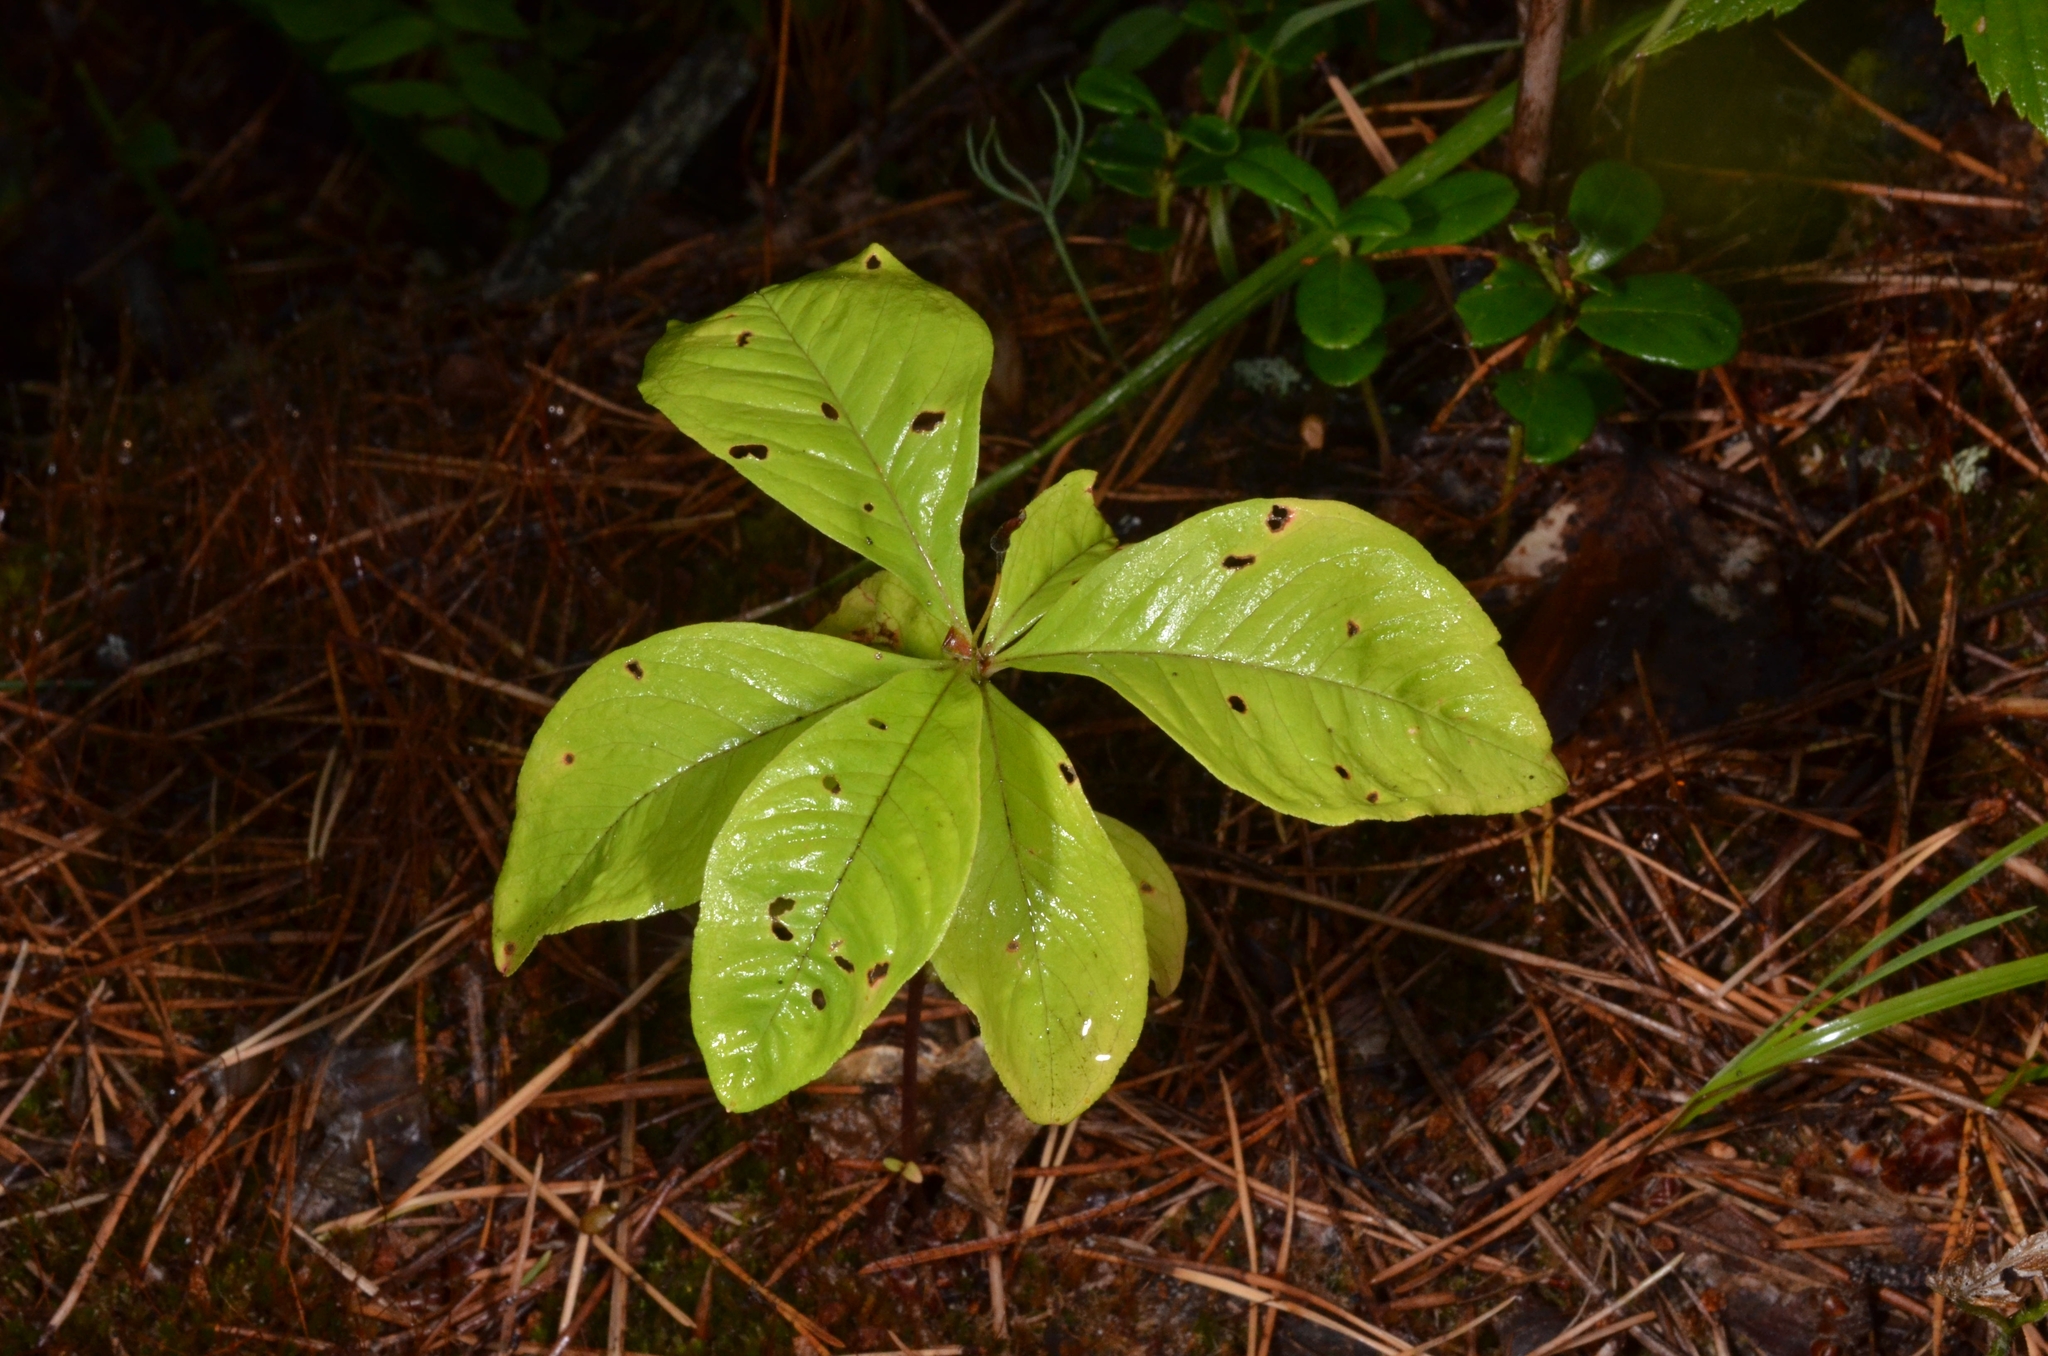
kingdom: Plantae
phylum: Tracheophyta
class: Magnoliopsida
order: Ericales
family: Primulaceae
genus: Lysimachia
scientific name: Lysimachia europaea
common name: Arctic starflower
